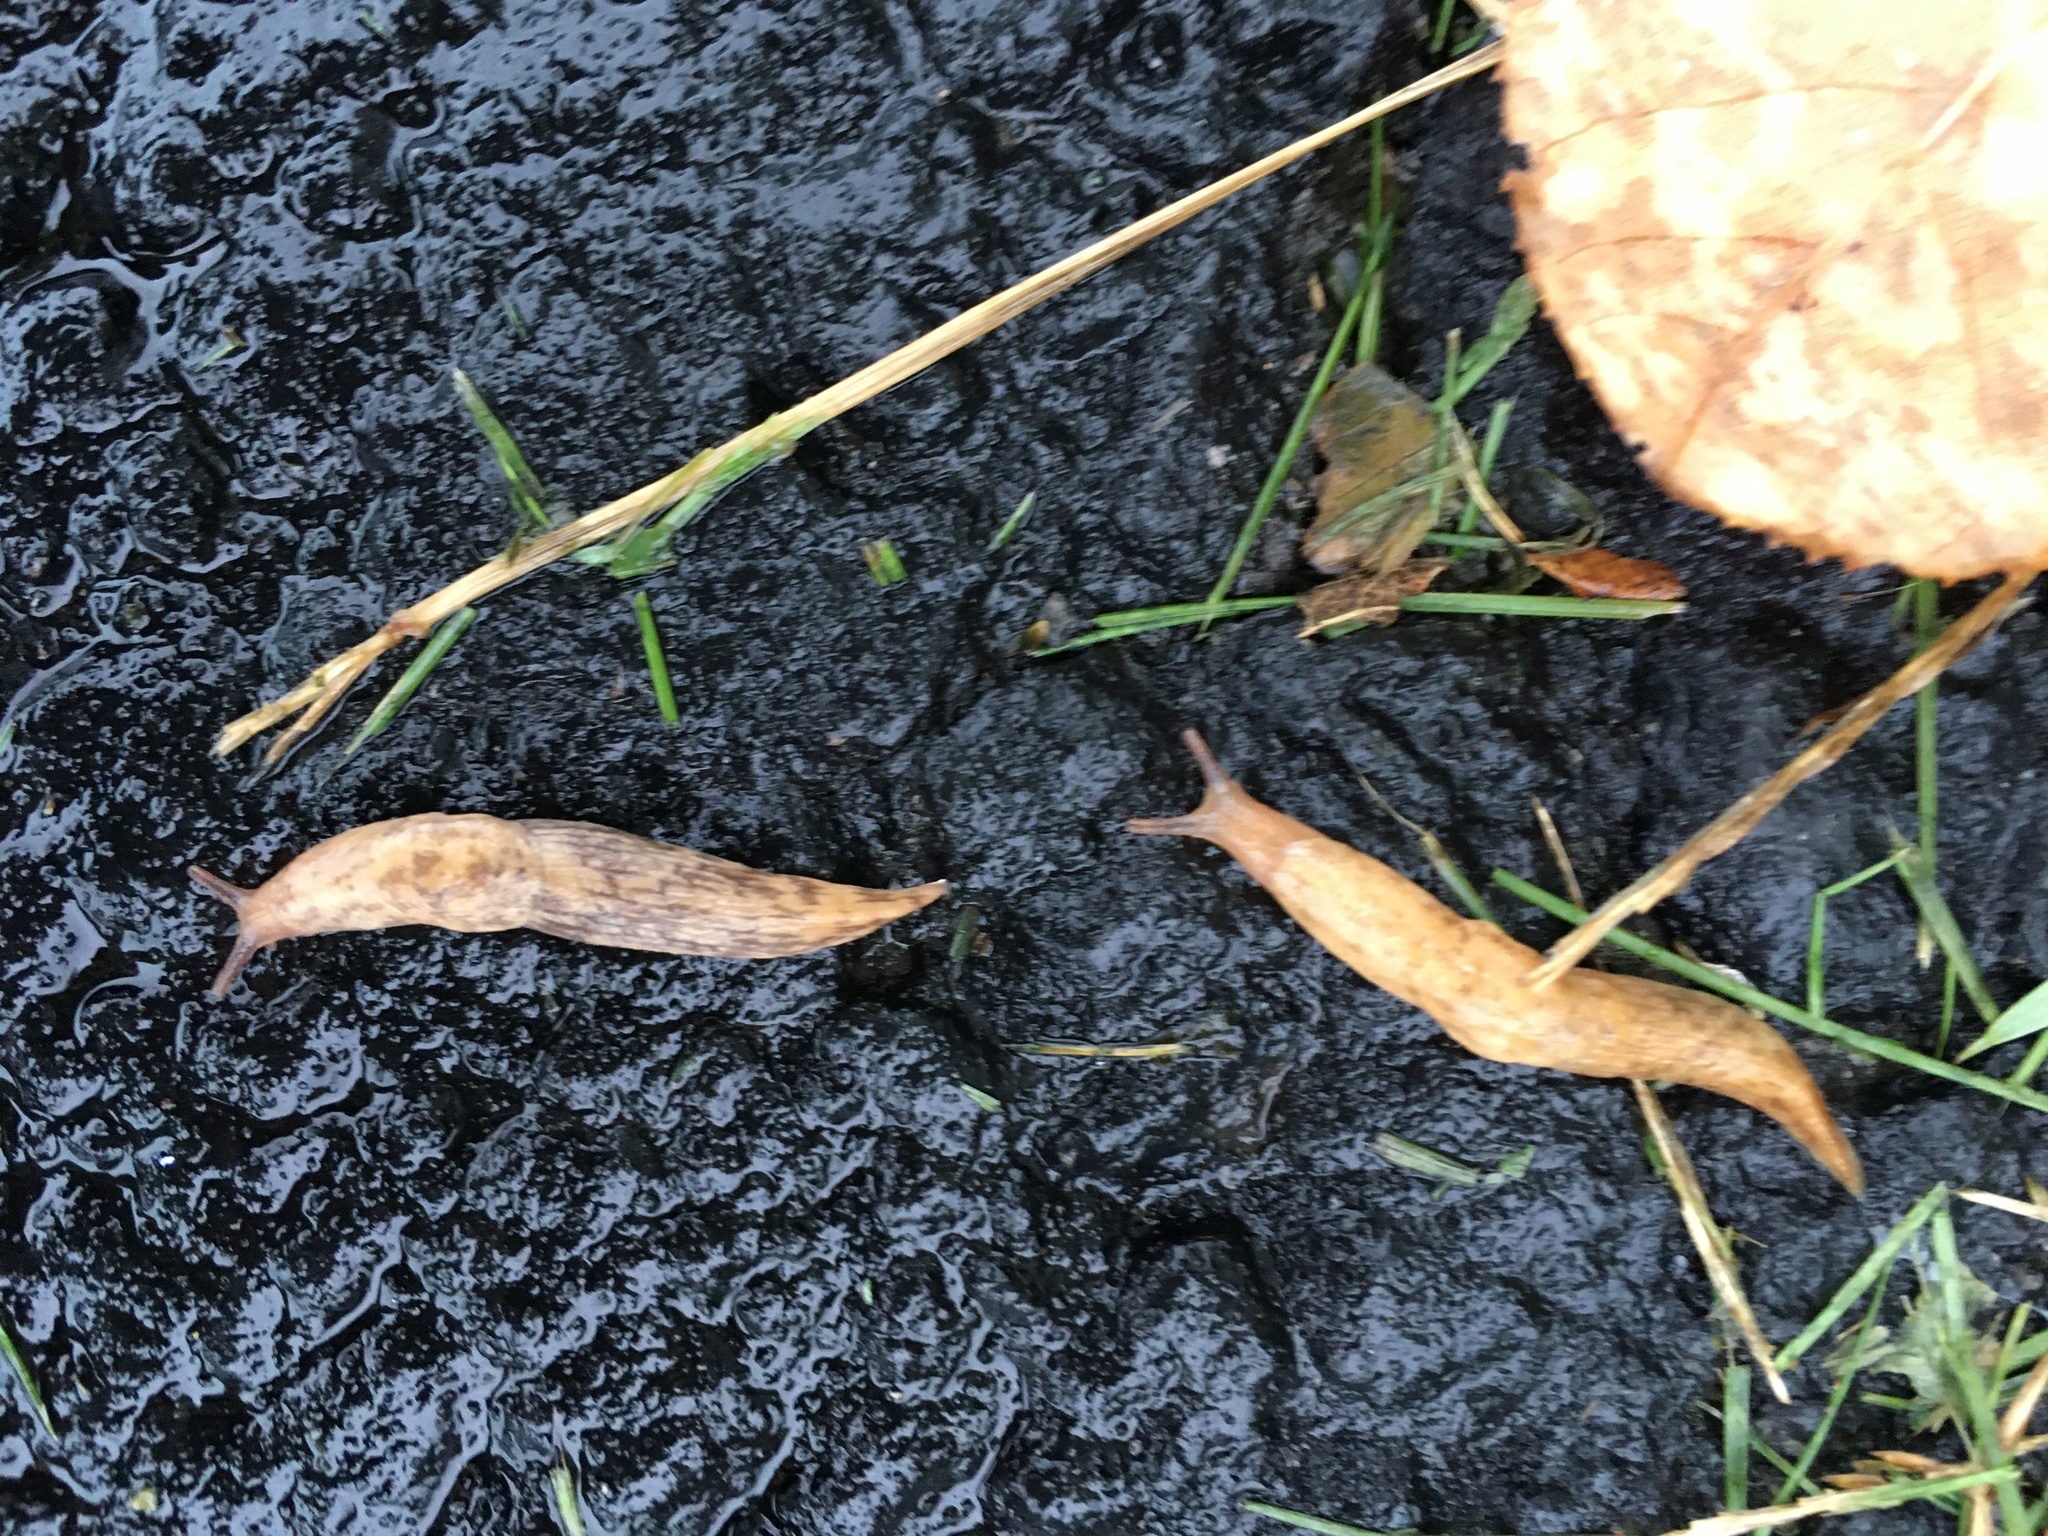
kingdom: Animalia
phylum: Mollusca
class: Gastropoda
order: Stylommatophora
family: Agriolimacidae
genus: Deroceras
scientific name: Deroceras reticulatum
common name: Gray field slug
